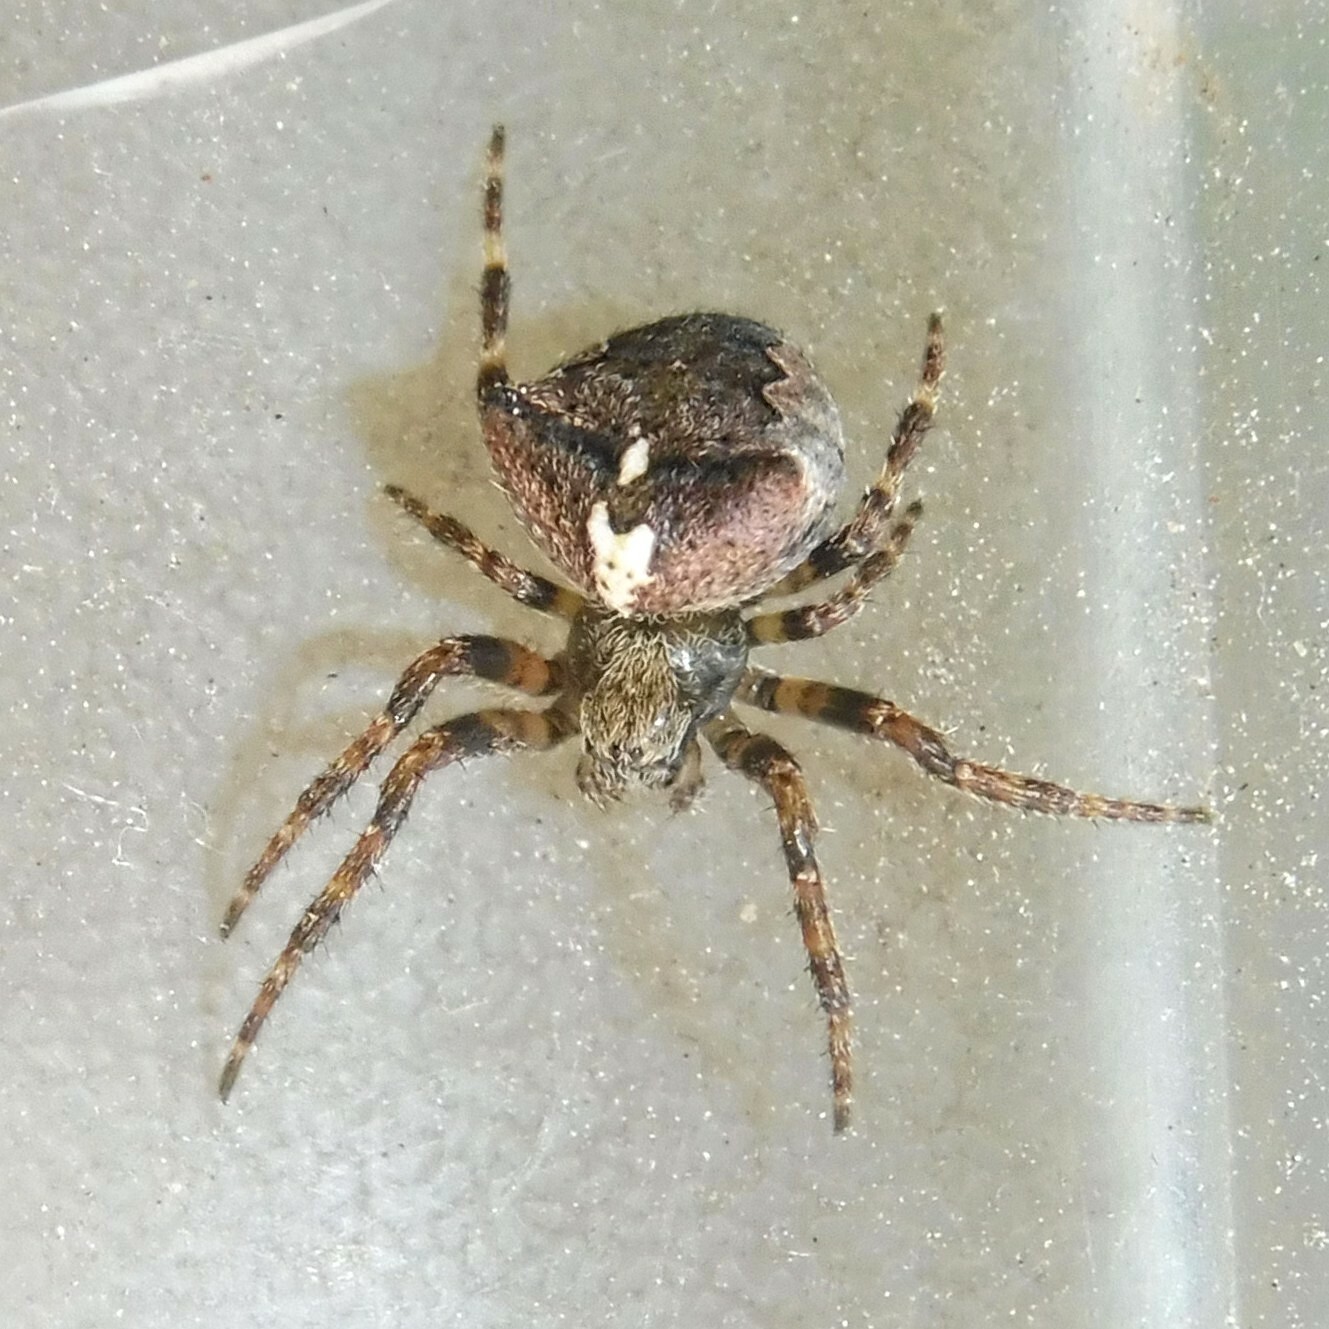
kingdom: Animalia
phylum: Arthropoda
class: Arachnida
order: Araneae
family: Araneidae
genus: Araneus
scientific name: Araneus angulatus
